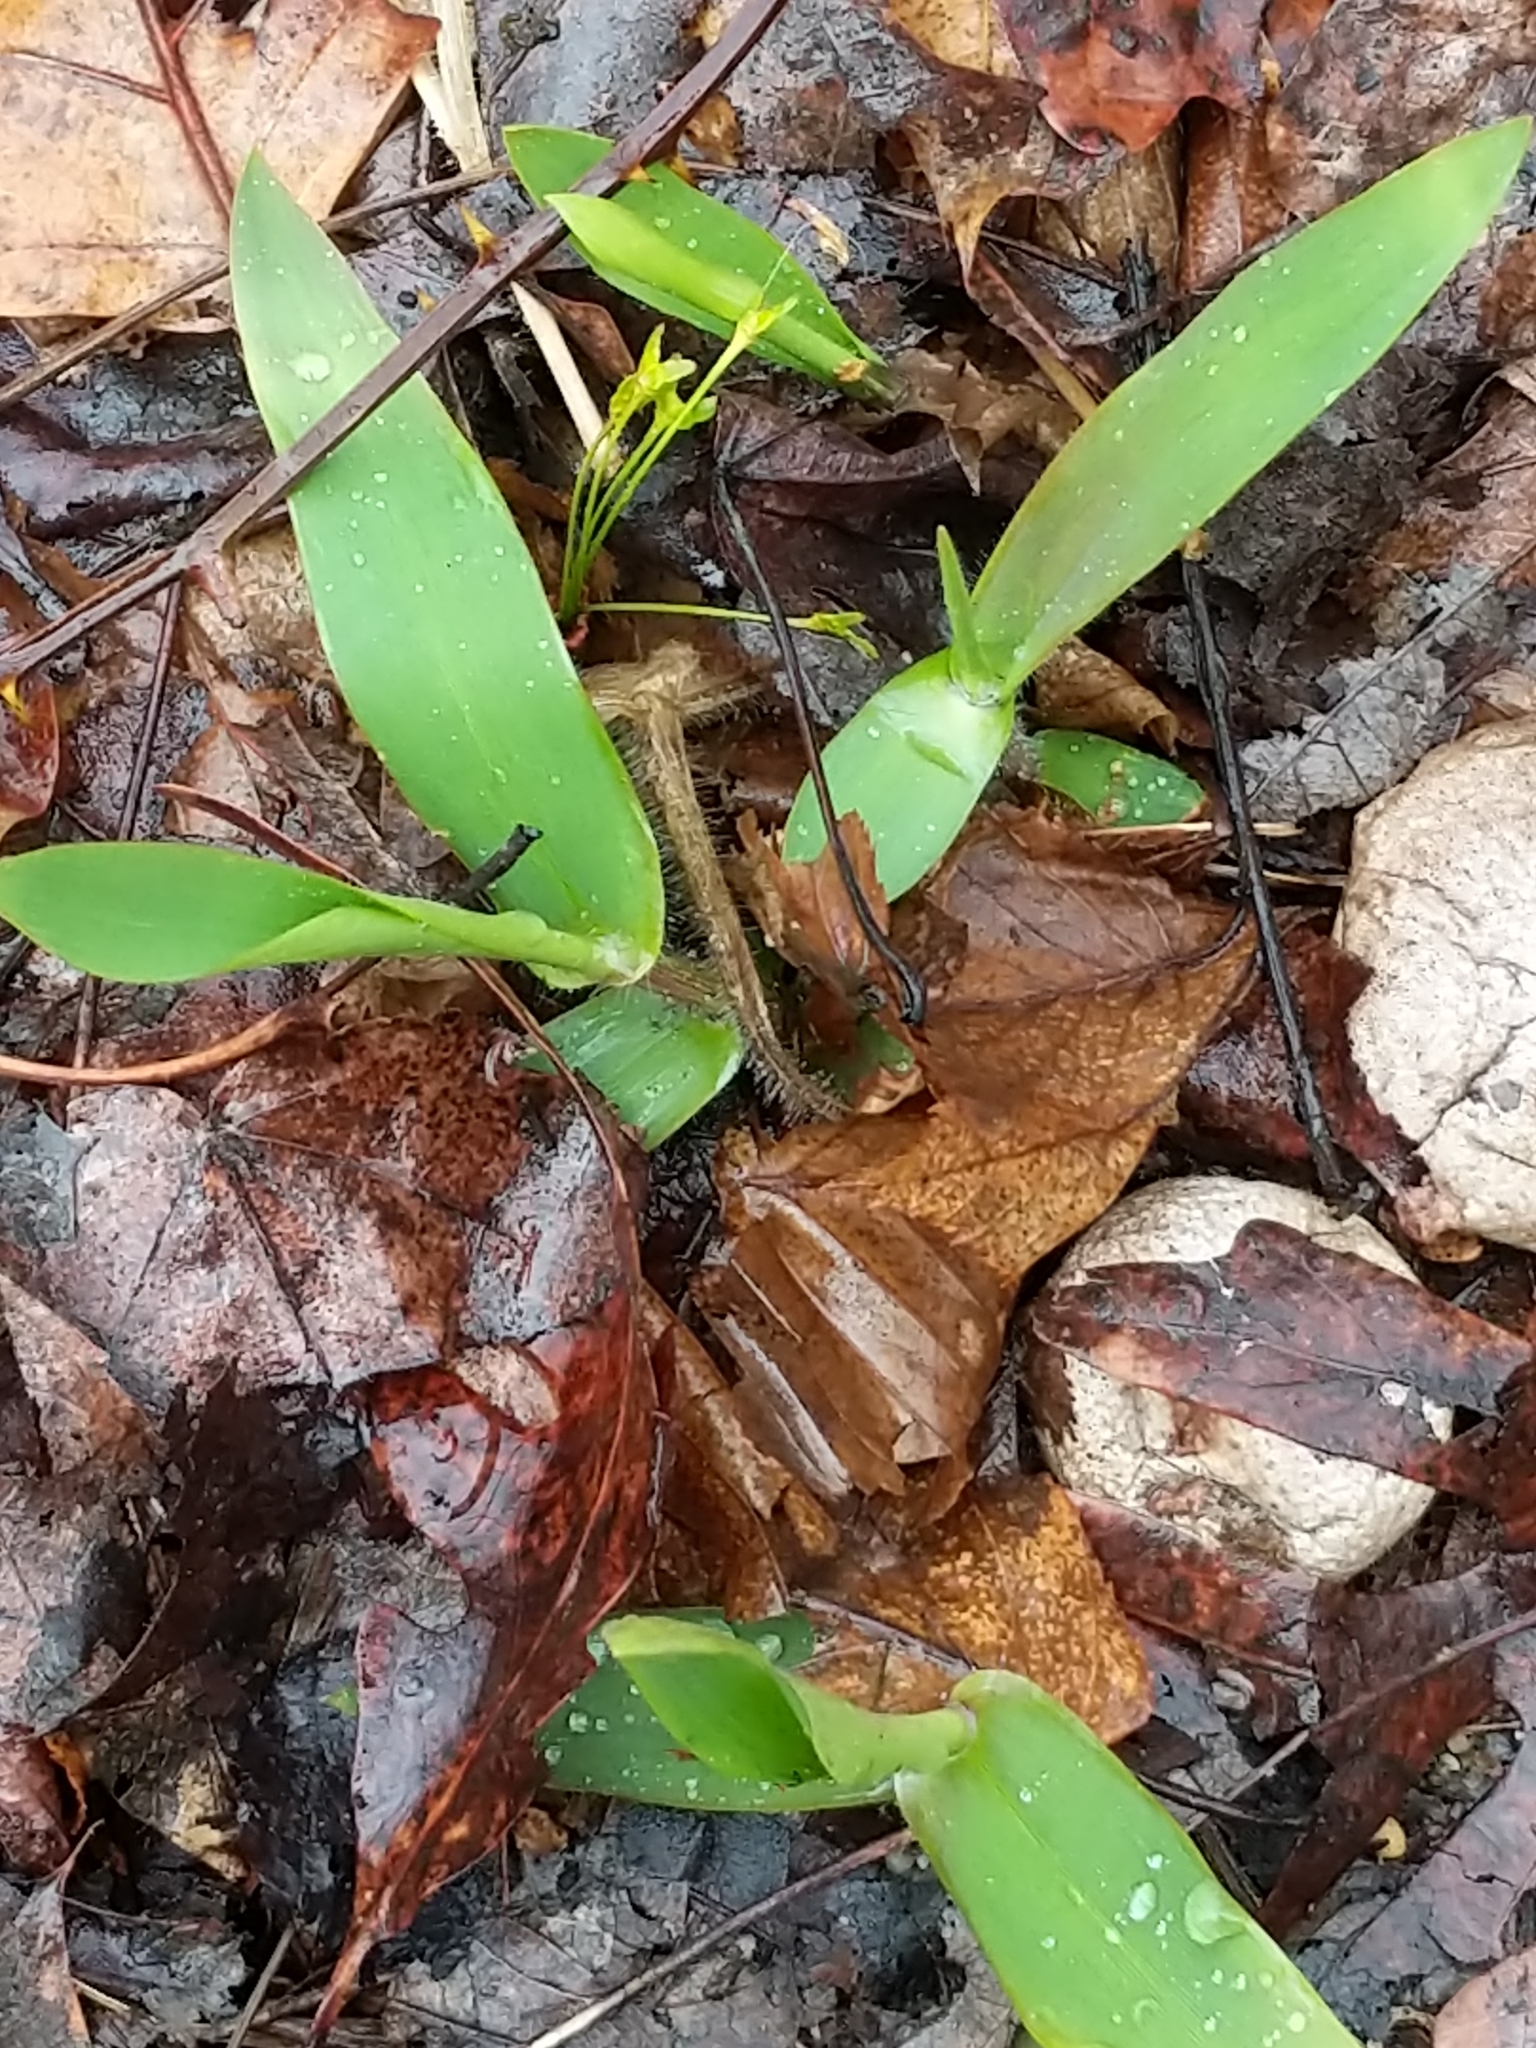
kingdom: Plantae
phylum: Tracheophyta
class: Liliopsida
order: Poales
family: Poaceae
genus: Dichanthelium
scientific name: Dichanthelium
